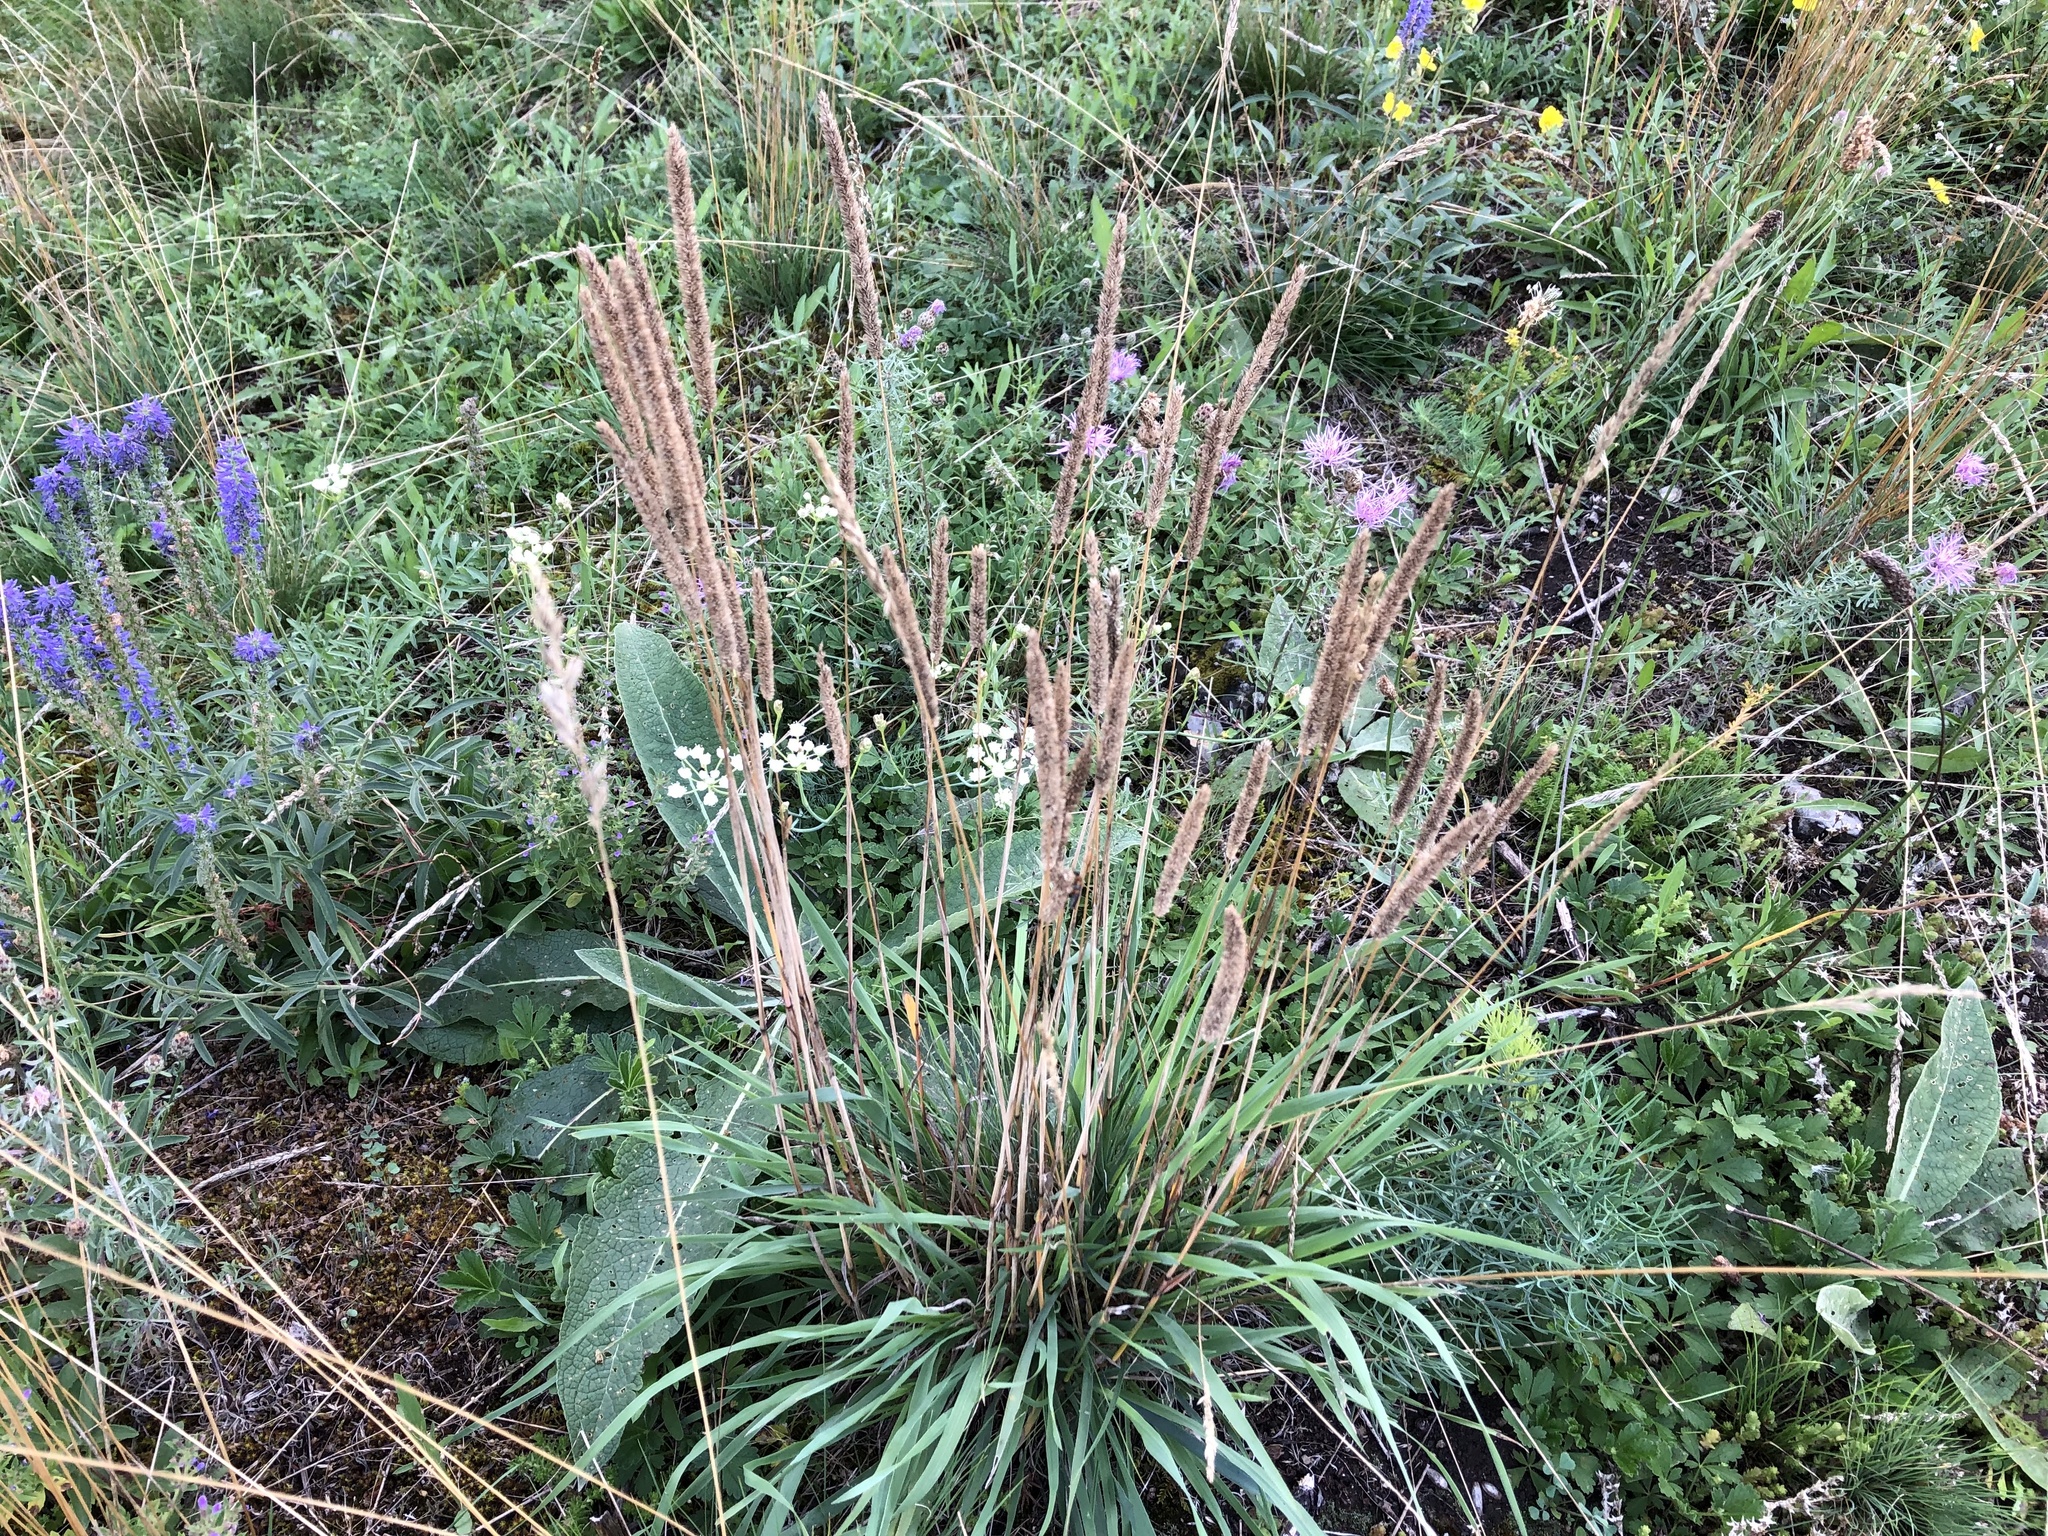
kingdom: Plantae
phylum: Tracheophyta
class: Liliopsida
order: Poales
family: Poaceae
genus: Phleum
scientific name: Phleum phleoides
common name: Purple-stem cat's-tail
